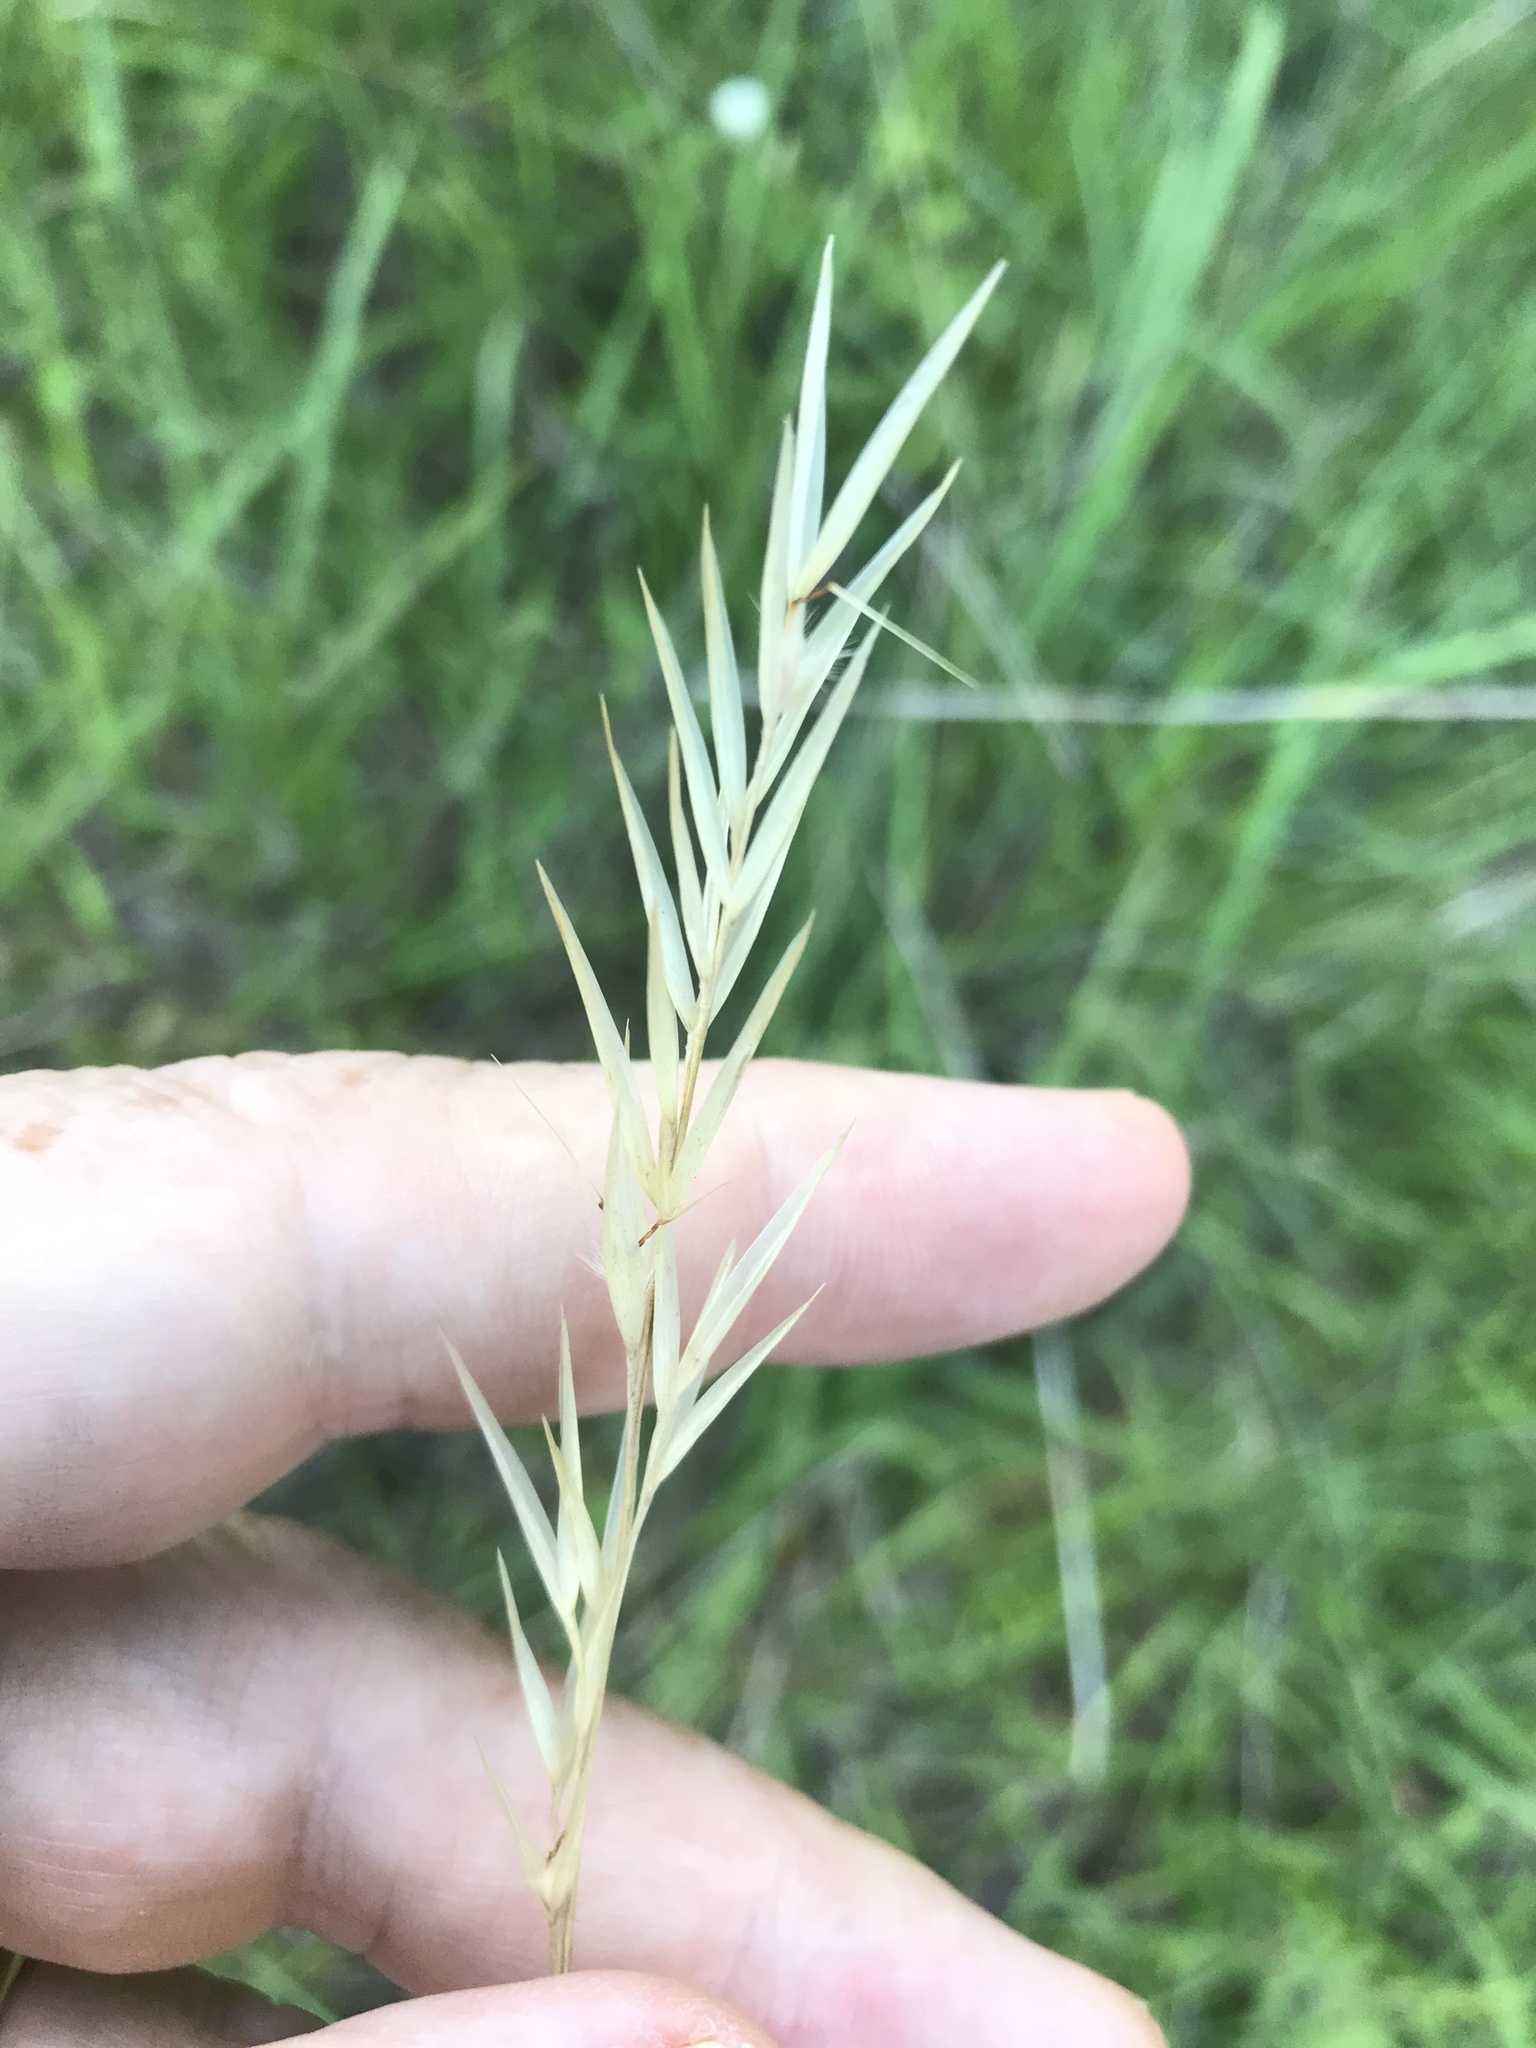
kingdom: Plantae
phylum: Tracheophyta
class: Liliopsida
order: Poales
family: Poaceae
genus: Danthonia
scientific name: Danthonia sericea
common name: Downy danthonia
